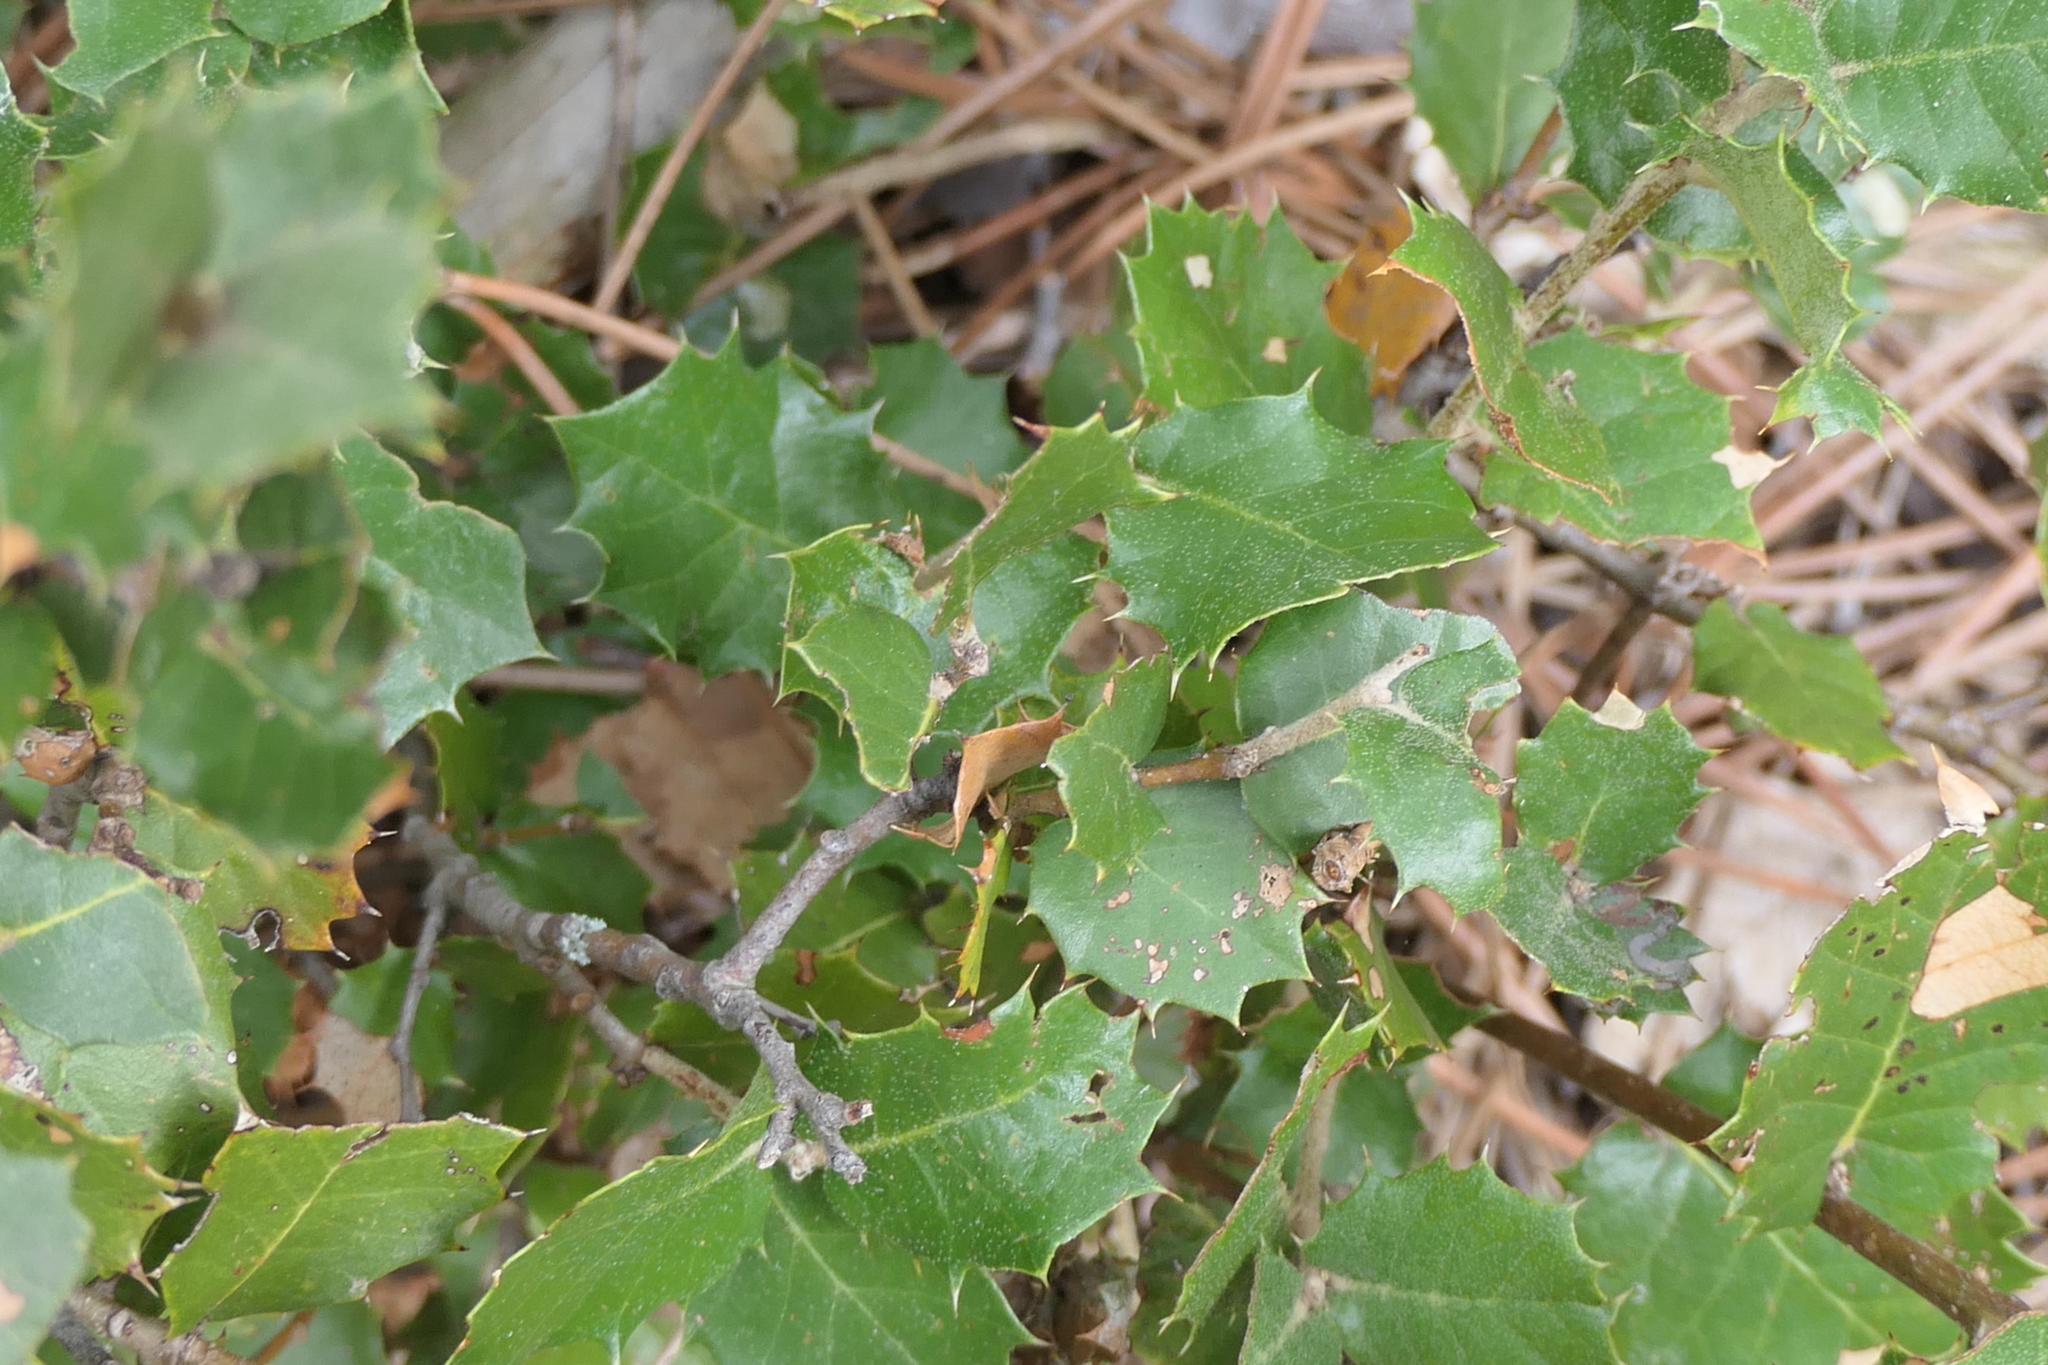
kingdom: Plantae
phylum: Tracheophyta
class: Magnoliopsida
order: Fagales
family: Fagaceae
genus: Quercus
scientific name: Quercus rotundifolia
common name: Holm oak
